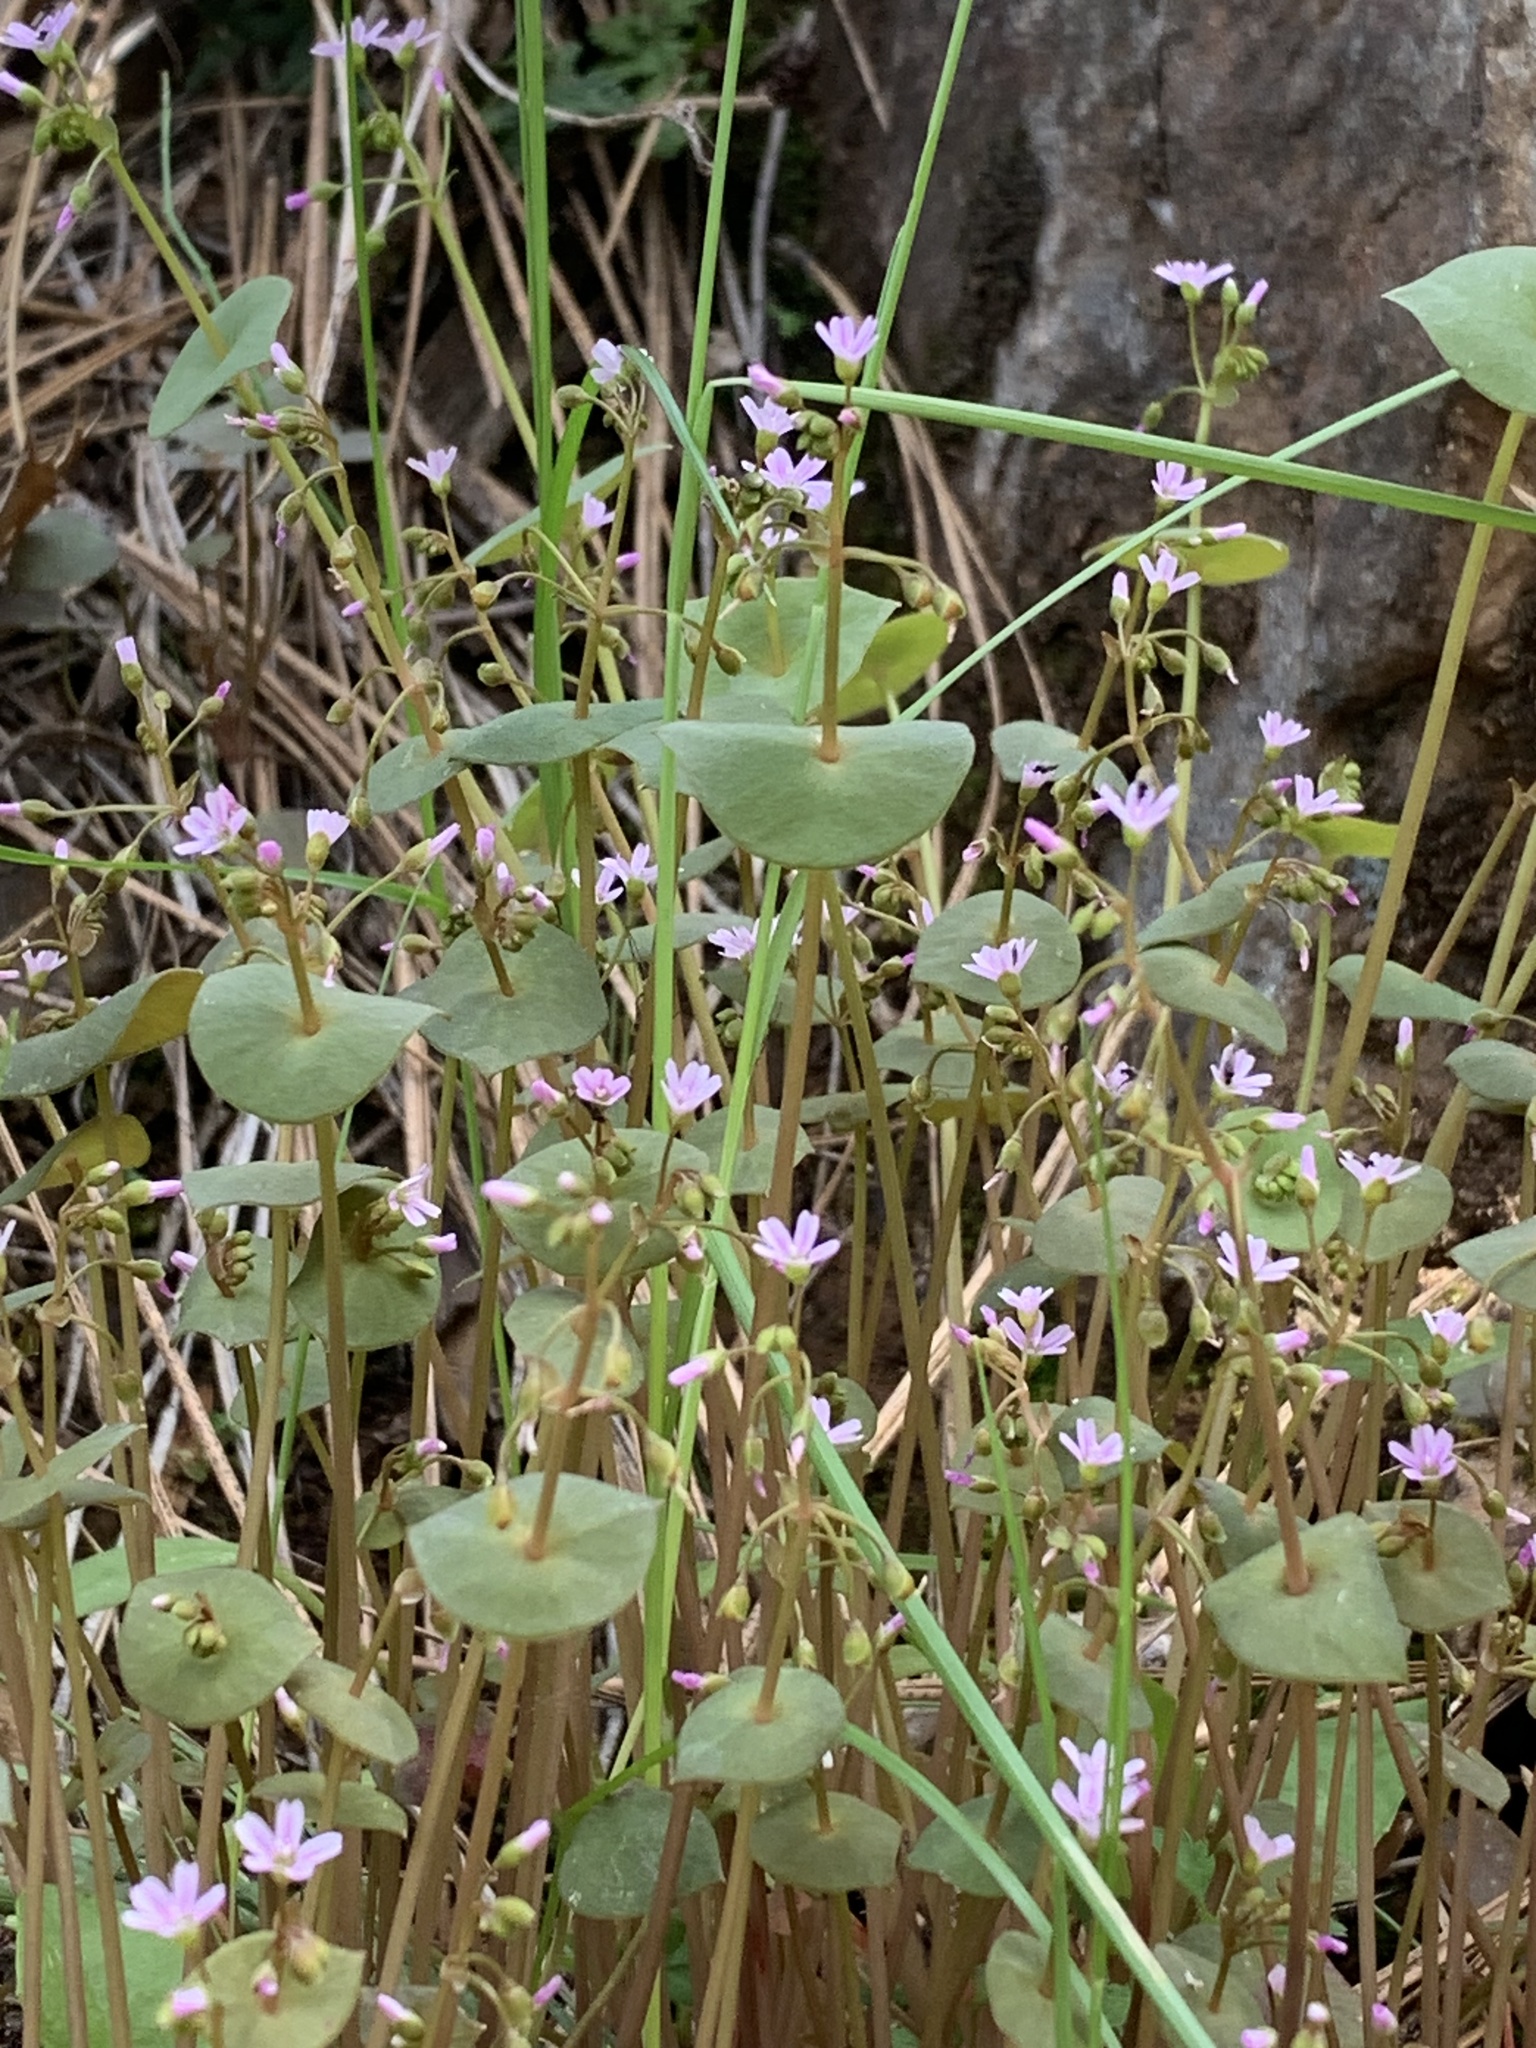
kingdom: Plantae
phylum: Tracheophyta
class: Magnoliopsida
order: Caryophyllales
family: Montiaceae
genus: Claytonia
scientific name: Claytonia perfoliata
